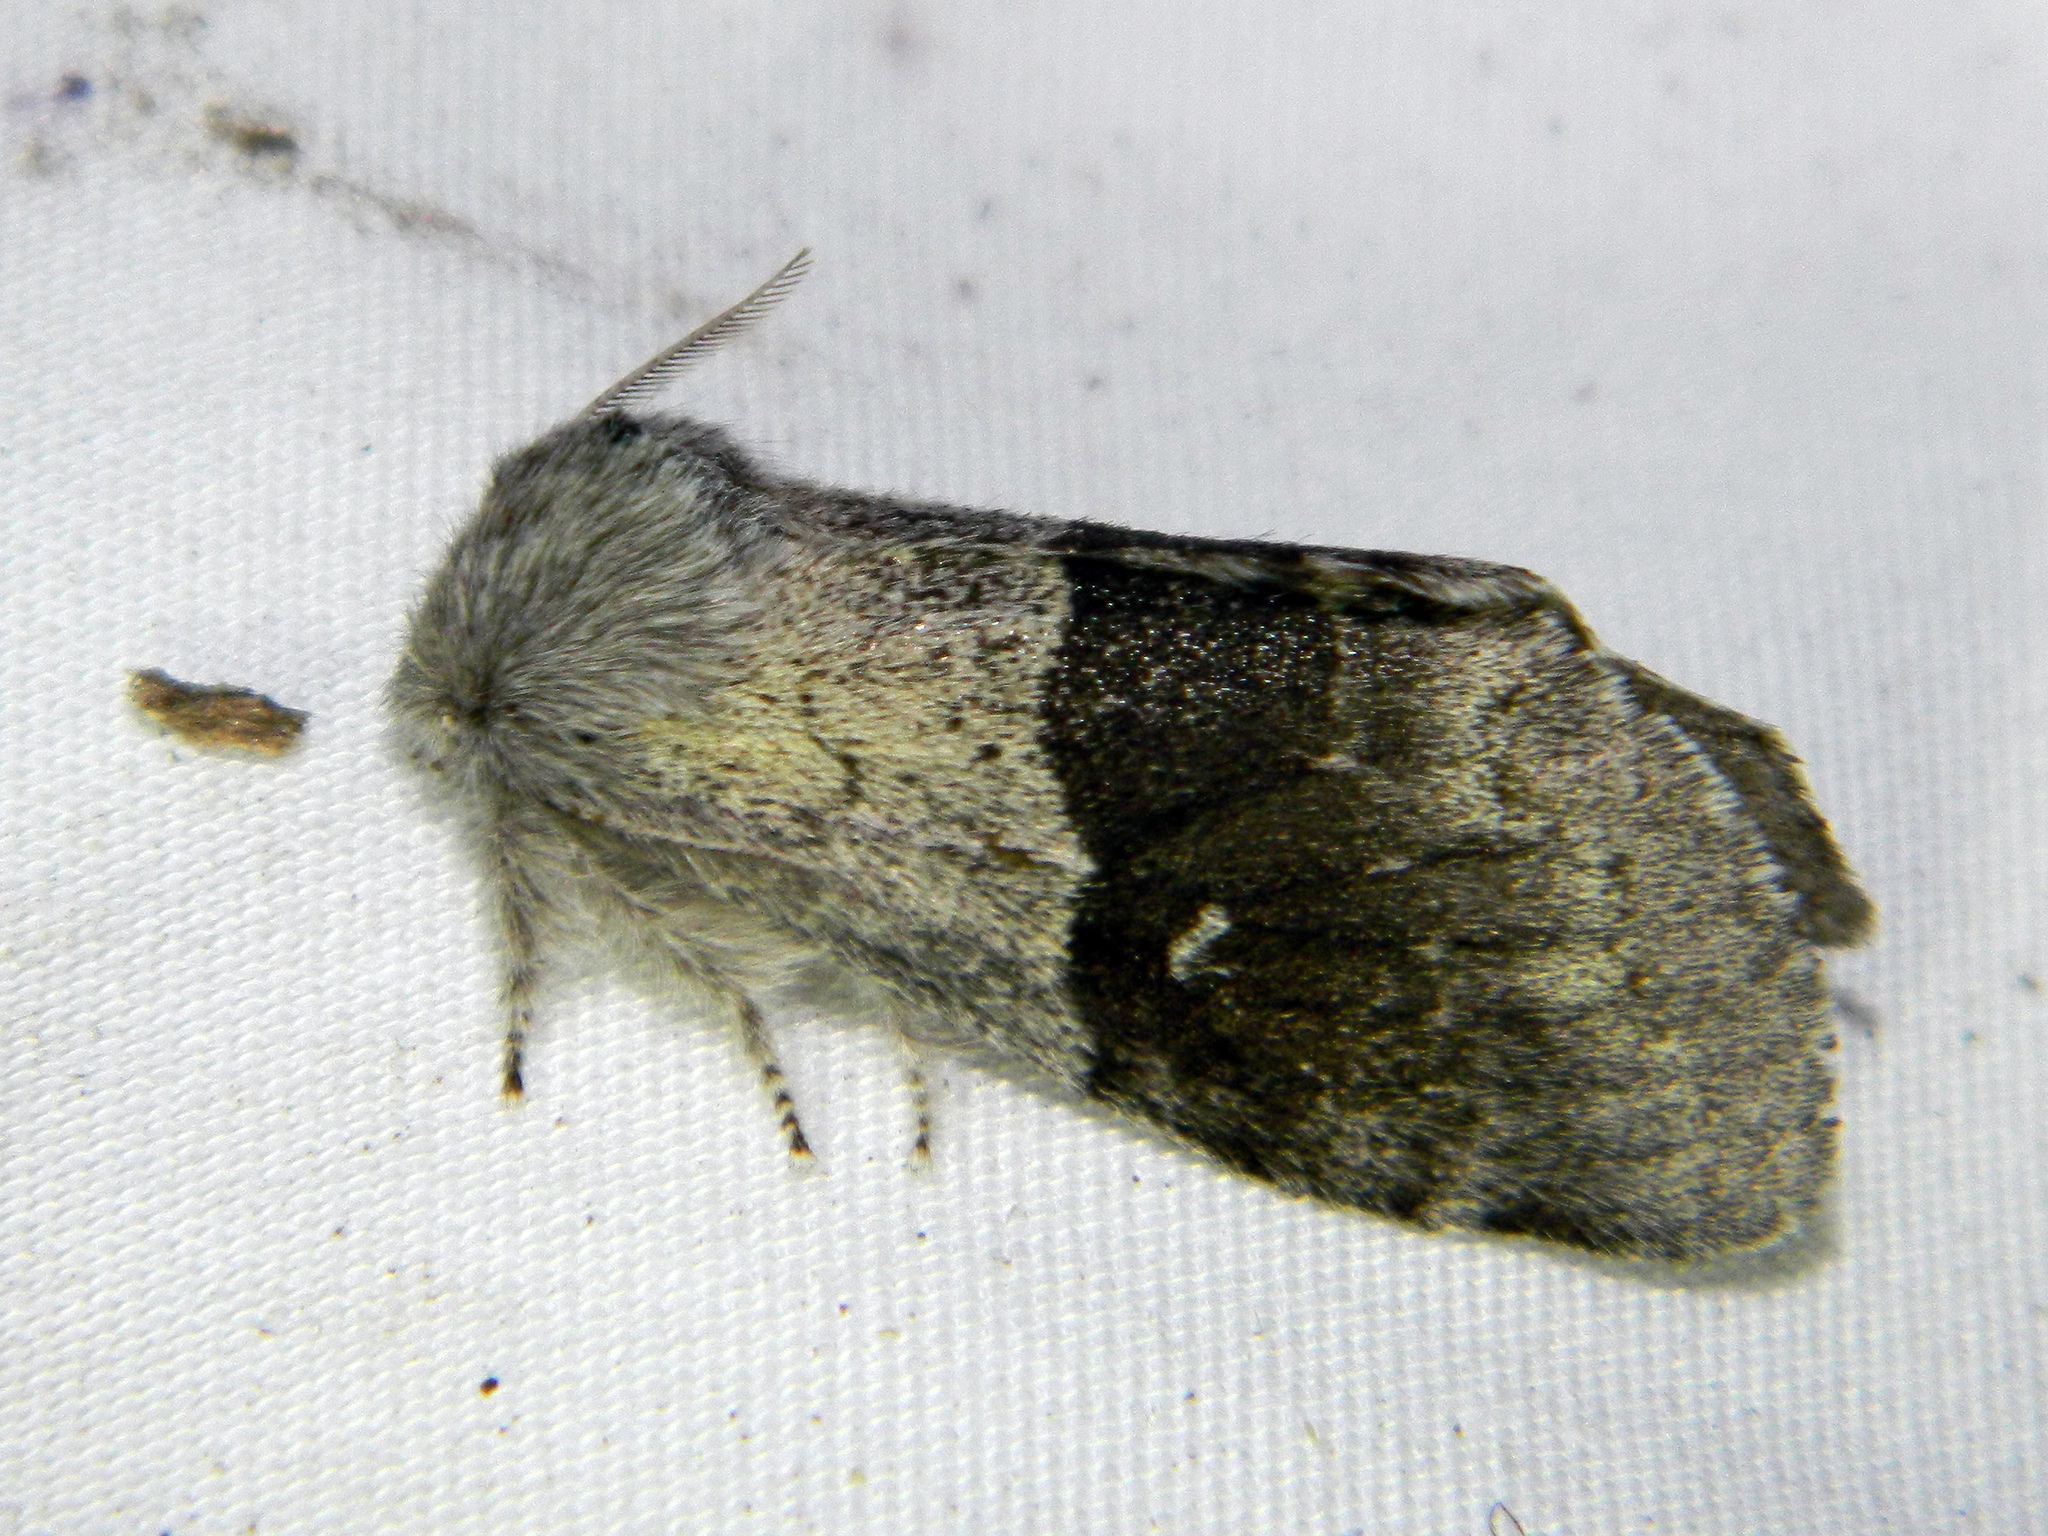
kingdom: Animalia
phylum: Arthropoda
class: Insecta
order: Lepidoptera
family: Notodontidae
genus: Gluphisia
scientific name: Gluphisia lintneri
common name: Lintner's gluphisia moth
